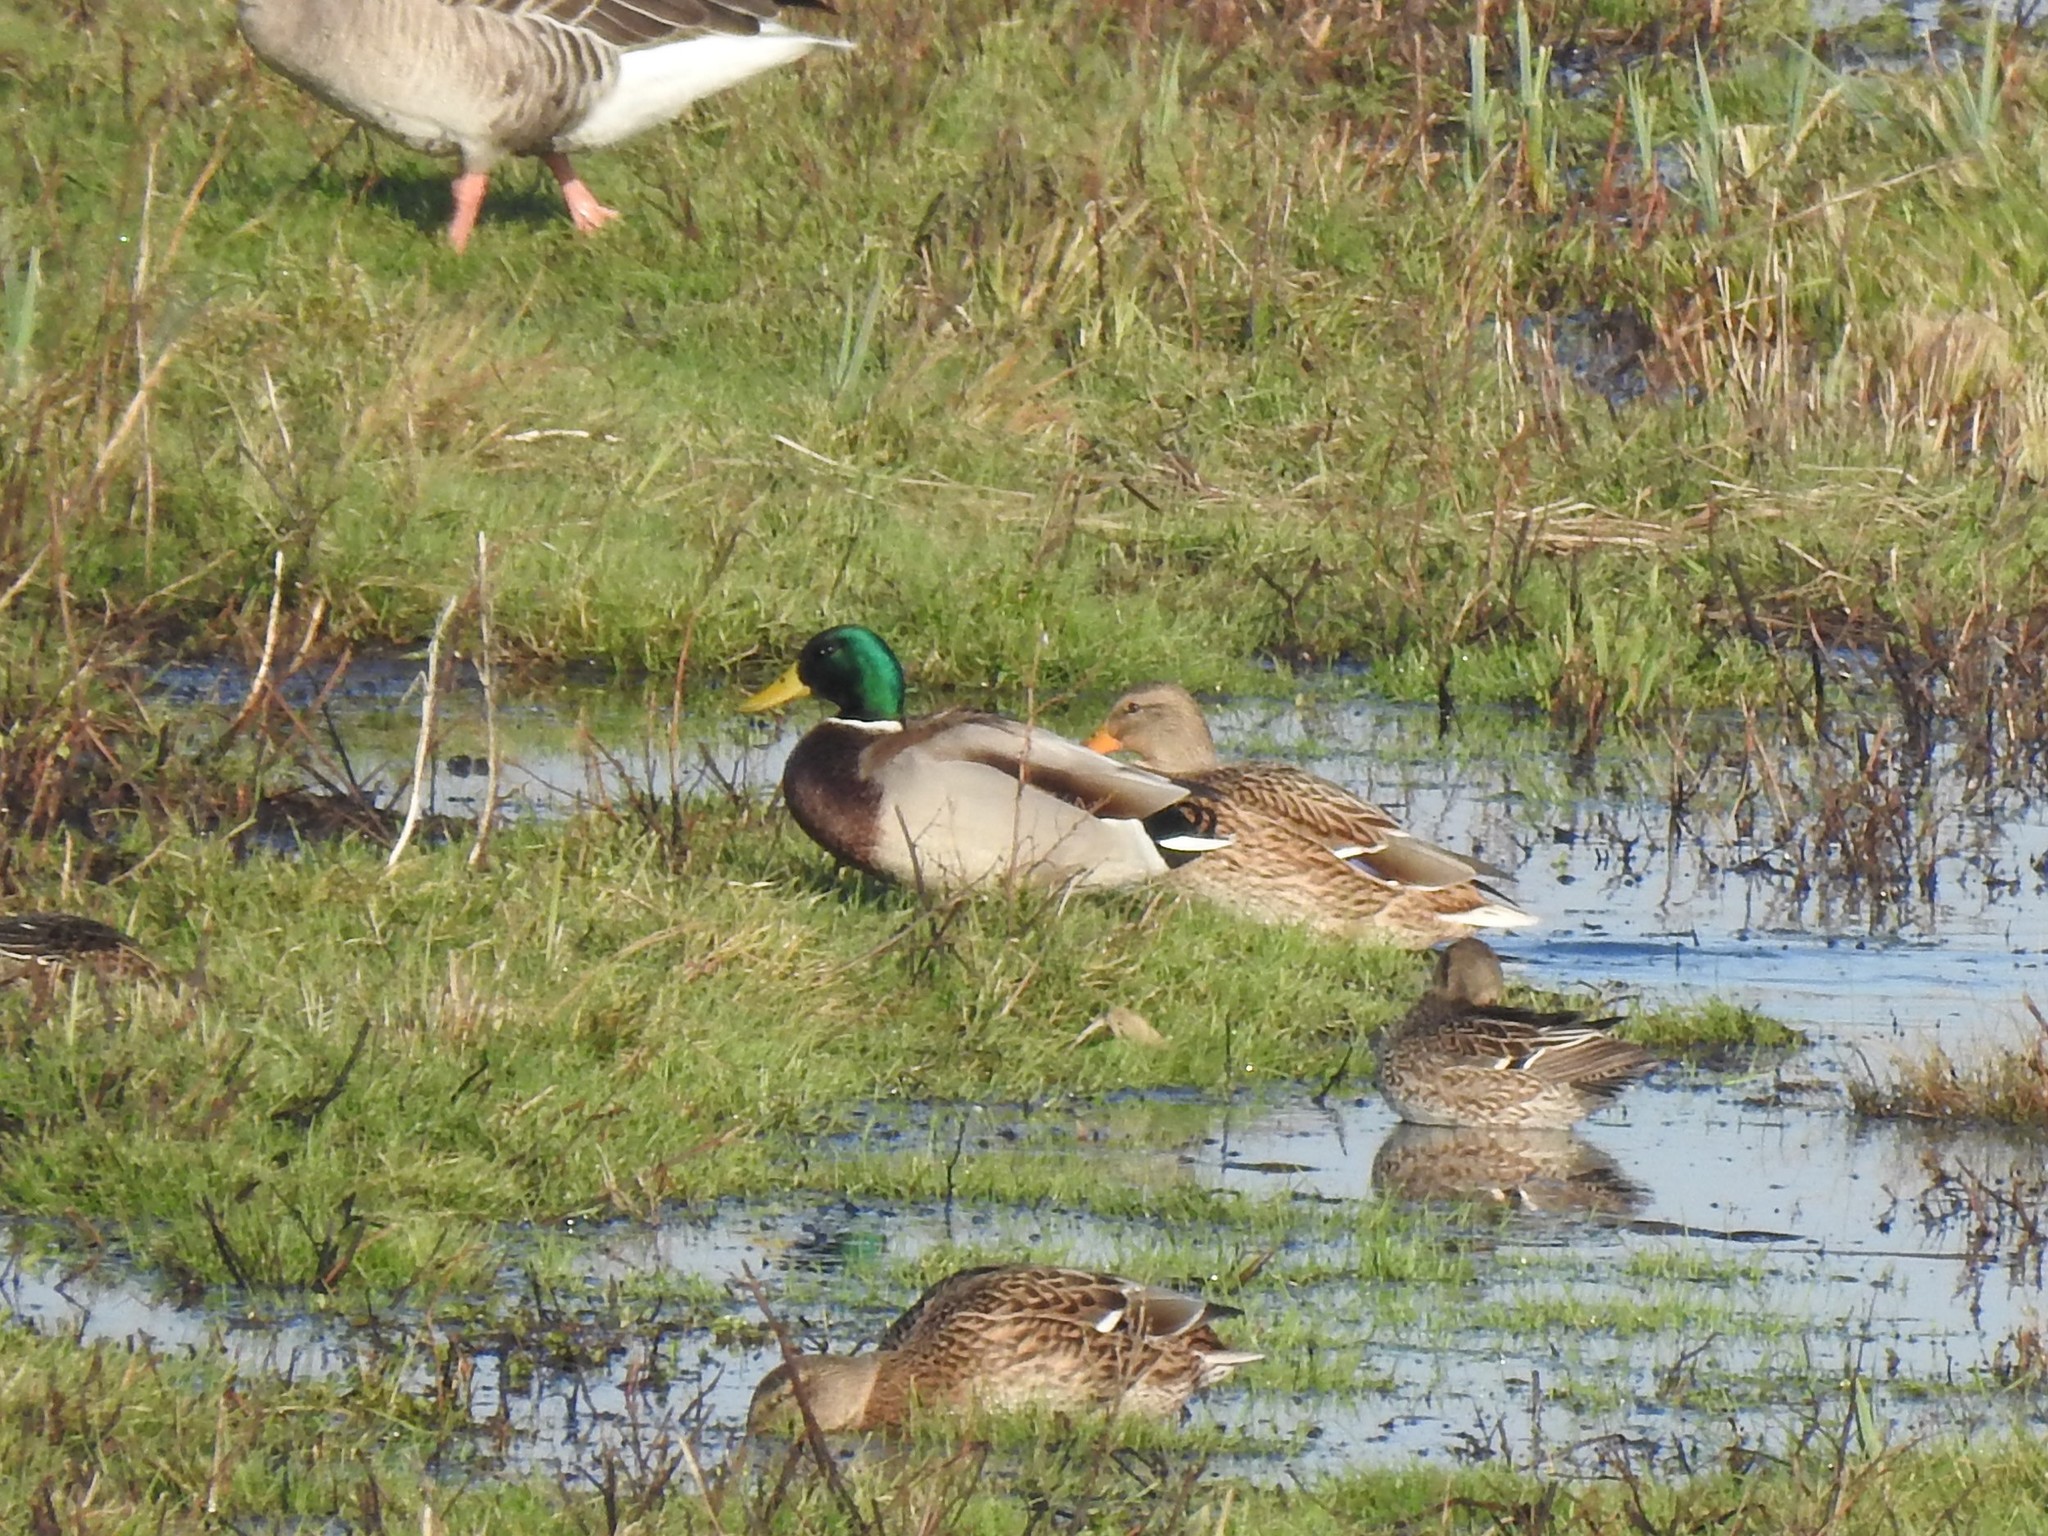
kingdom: Animalia
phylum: Chordata
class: Aves
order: Anseriformes
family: Anatidae
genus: Anas
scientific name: Anas platyrhynchos
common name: Mallard
